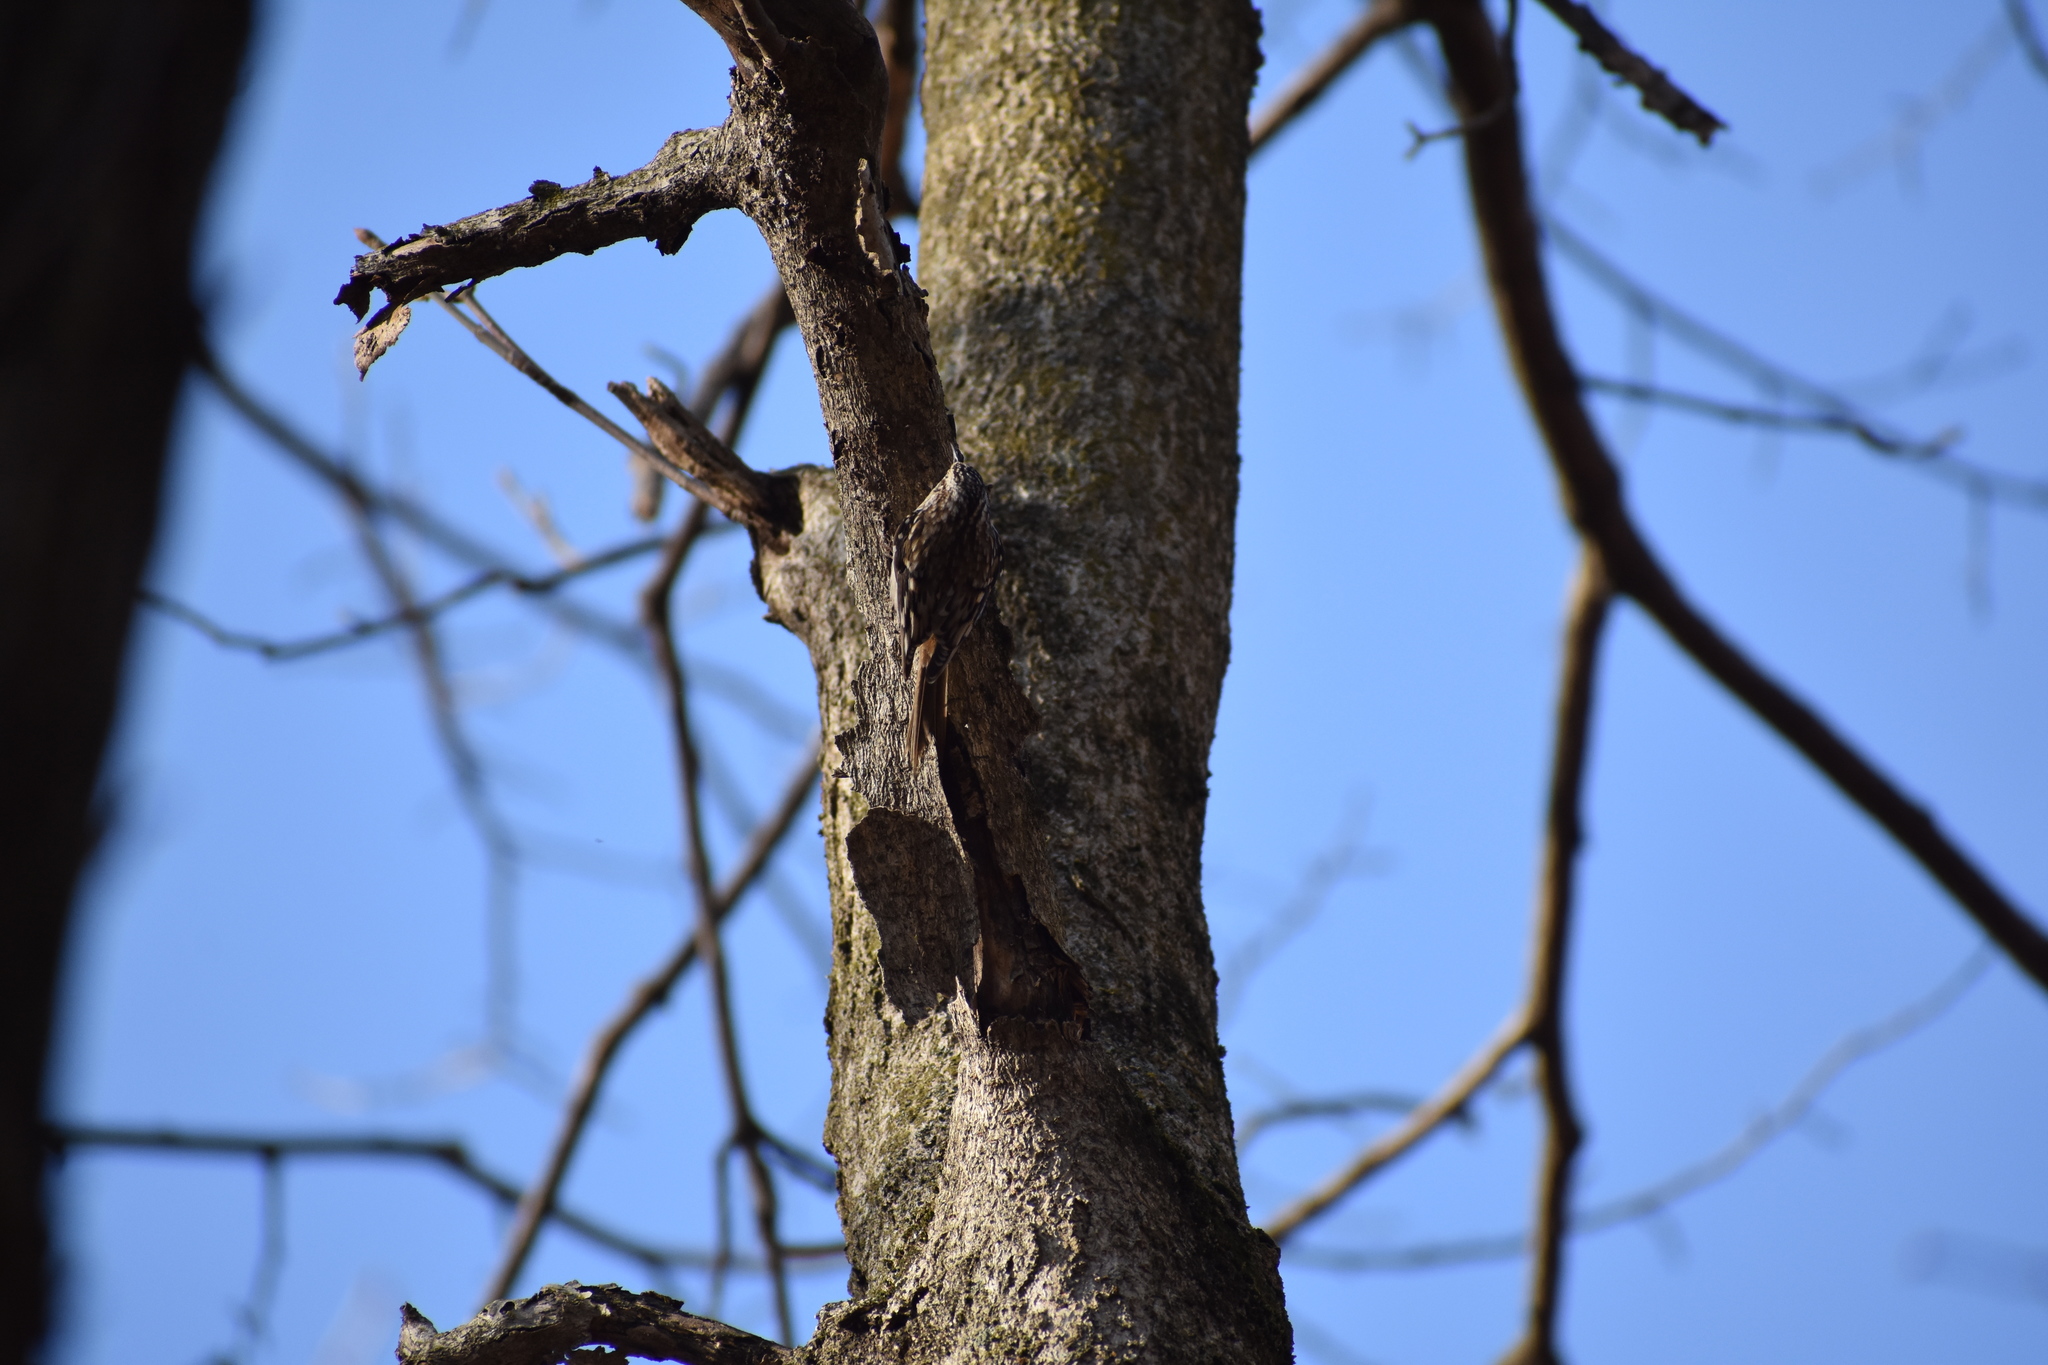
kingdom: Animalia
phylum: Chordata
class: Aves
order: Passeriformes
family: Certhiidae
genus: Certhia
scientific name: Certhia americana
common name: Brown creeper
